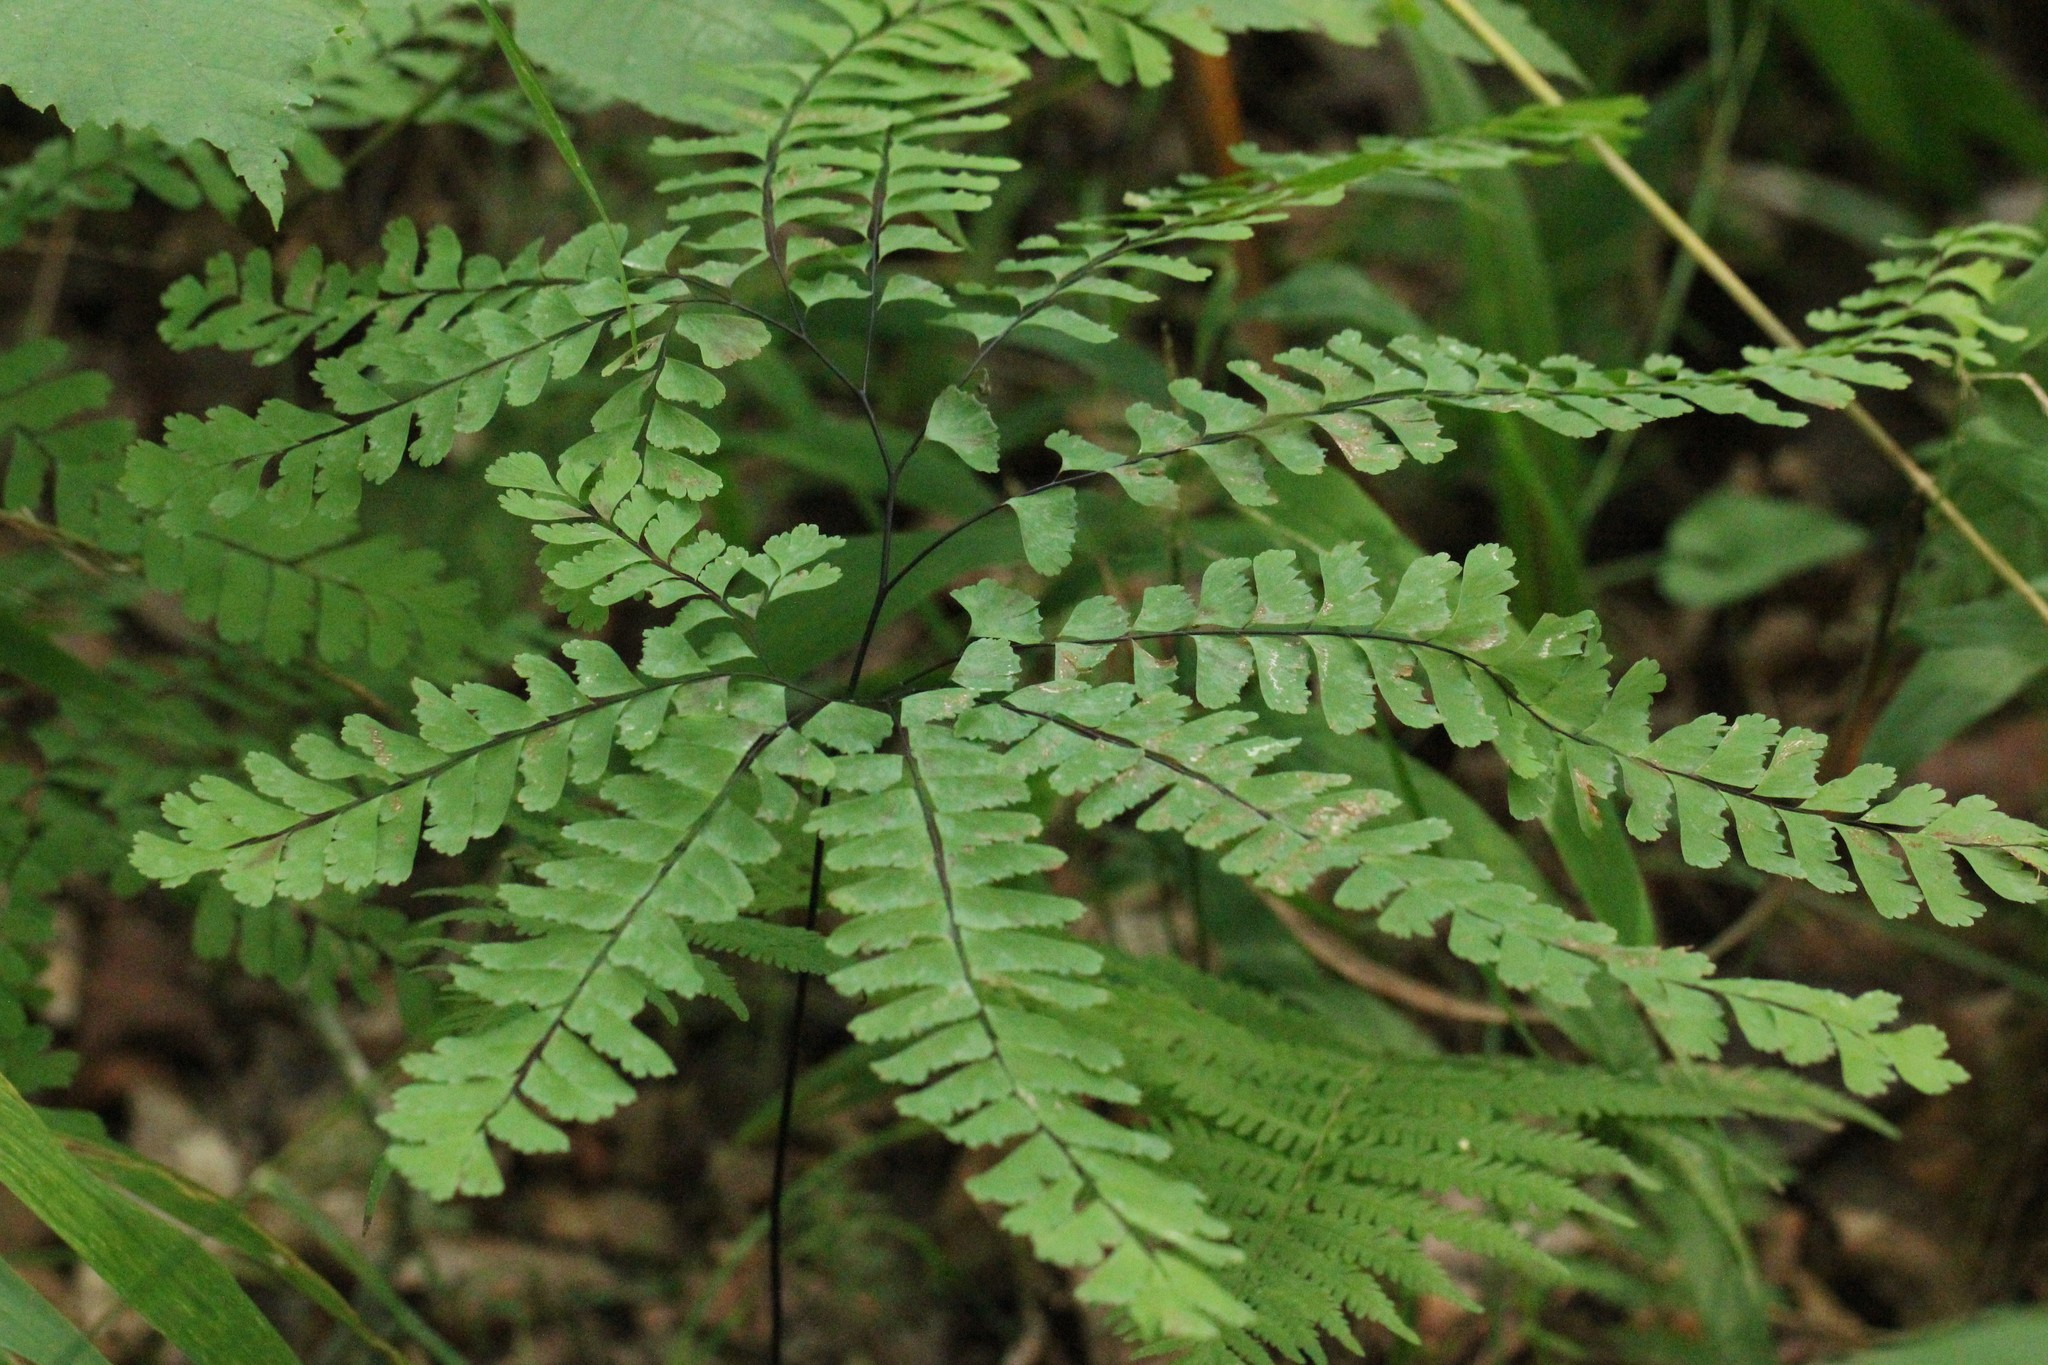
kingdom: Plantae
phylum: Tracheophyta
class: Polypodiopsida
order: Polypodiales
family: Pteridaceae
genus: Adiantum
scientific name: Adiantum pedatum
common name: Five-finger fern
